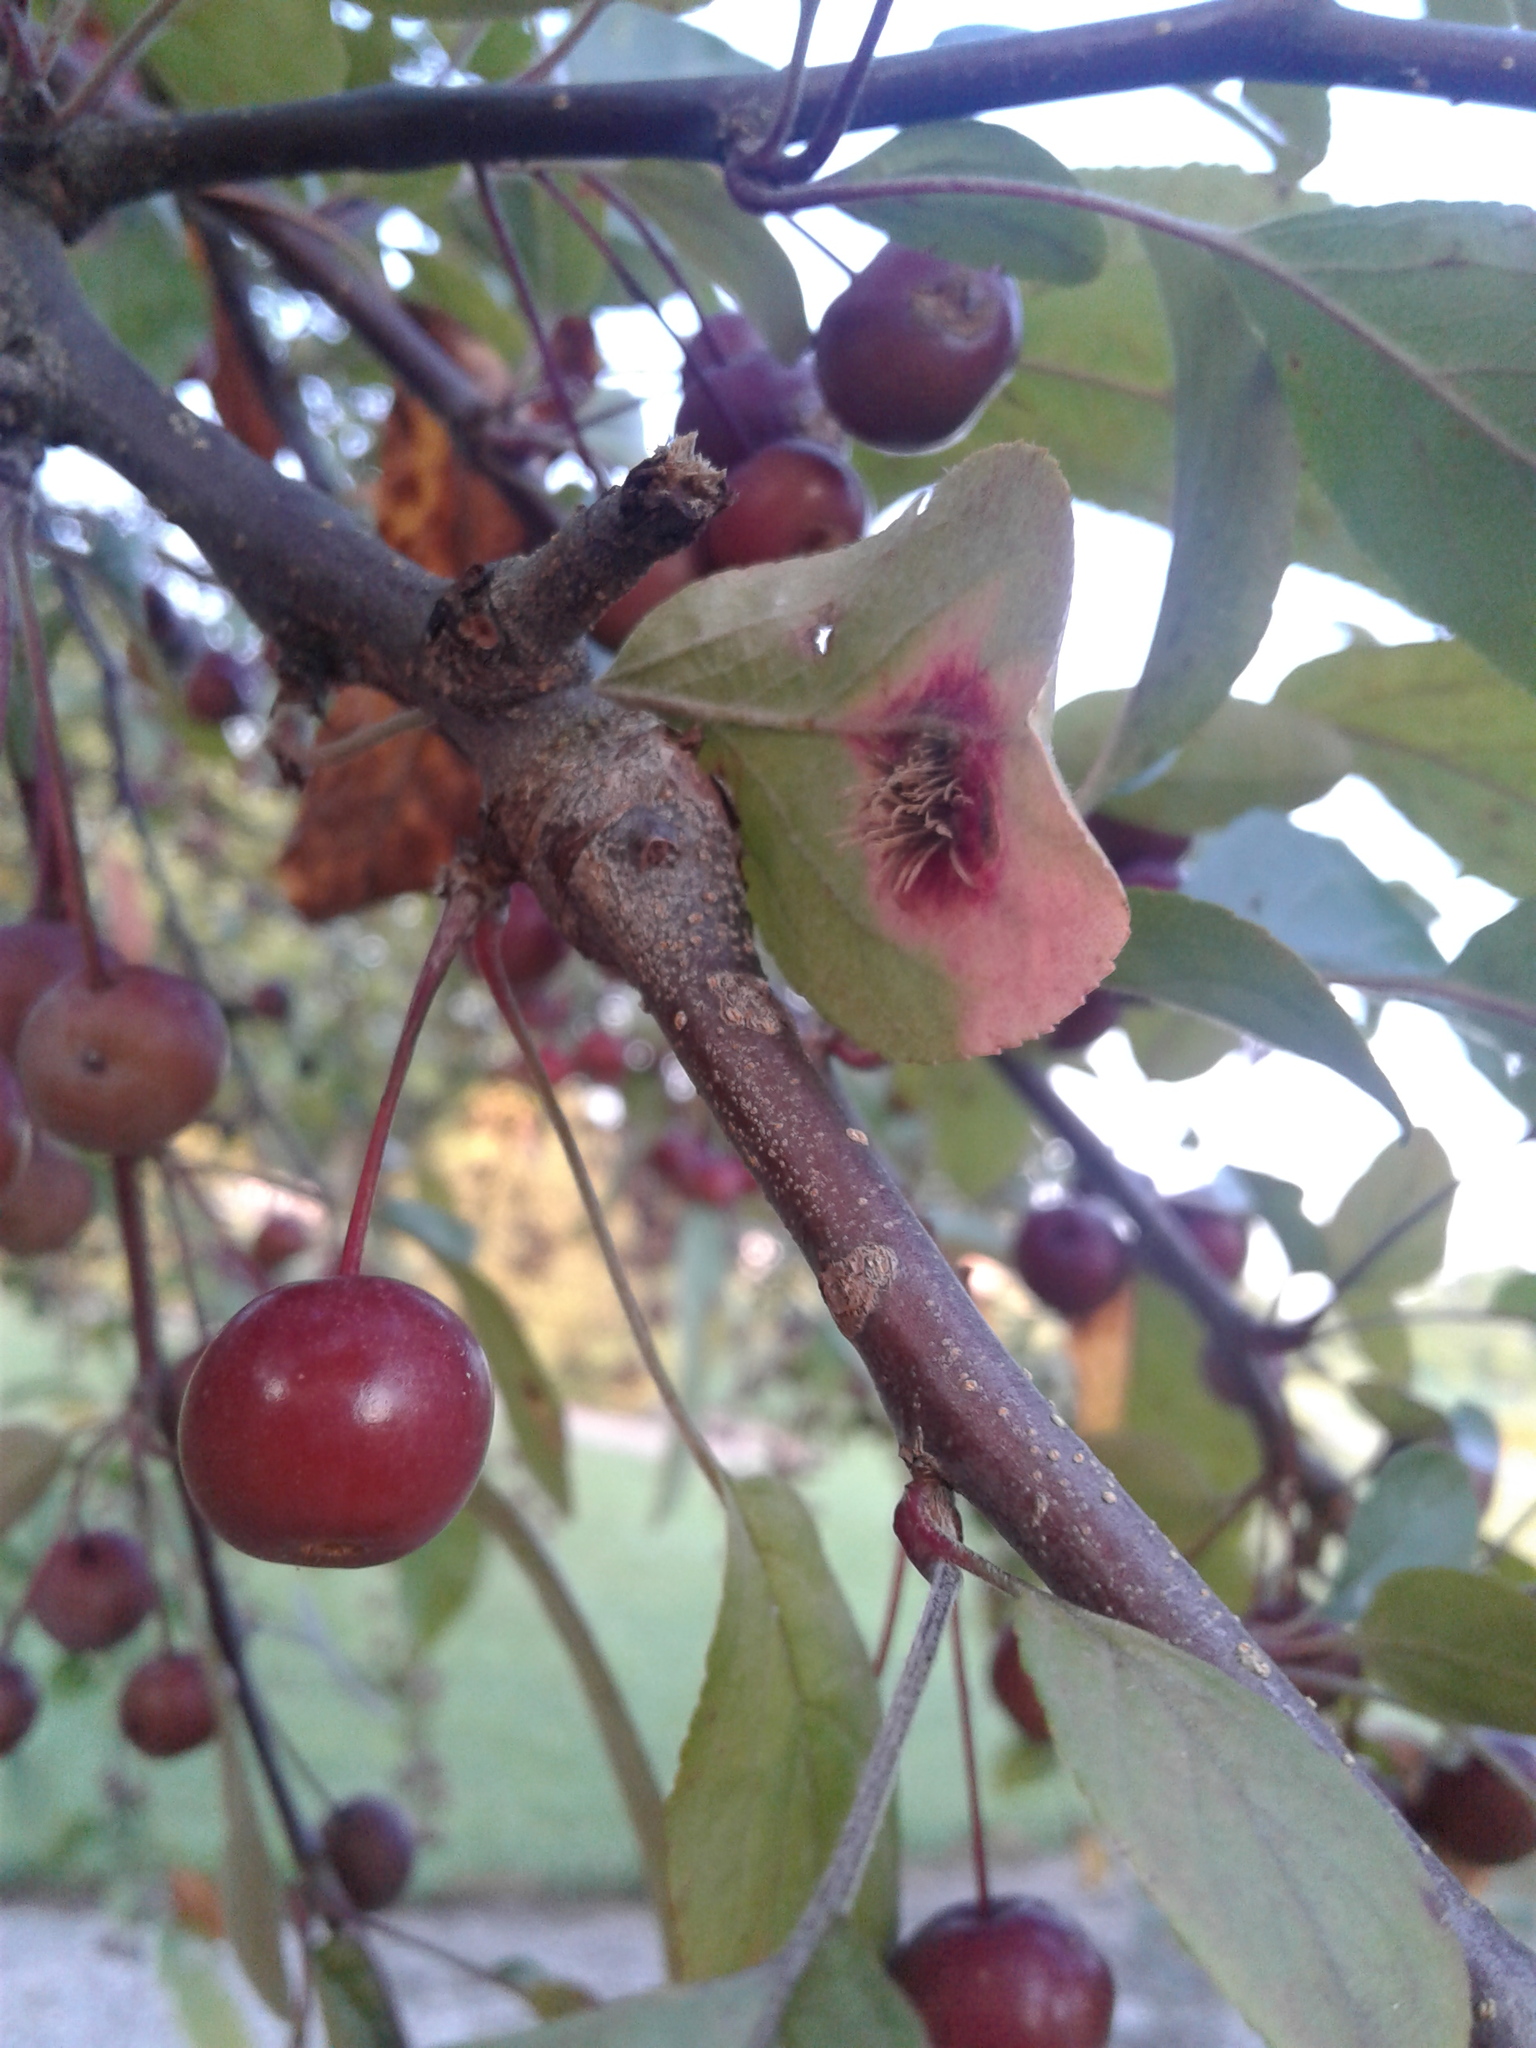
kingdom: Fungi
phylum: Basidiomycota
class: Pucciniomycetes
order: Pucciniales
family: Gymnosporangiaceae
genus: Gymnosporangium
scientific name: Gymnosporangium clavipes
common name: Quince rust
